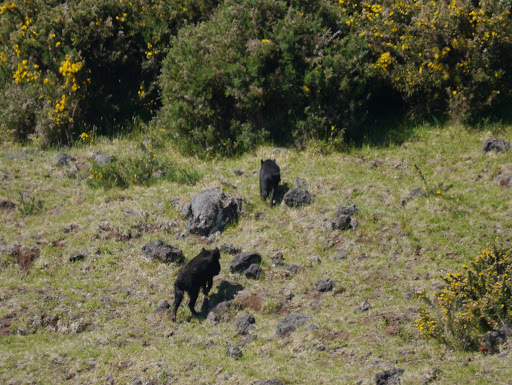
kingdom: Animalia
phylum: Chordata
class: Mammalia
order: Artiodactyla
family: Suidae
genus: Sus
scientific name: Sus scrofa
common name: Wild boar
